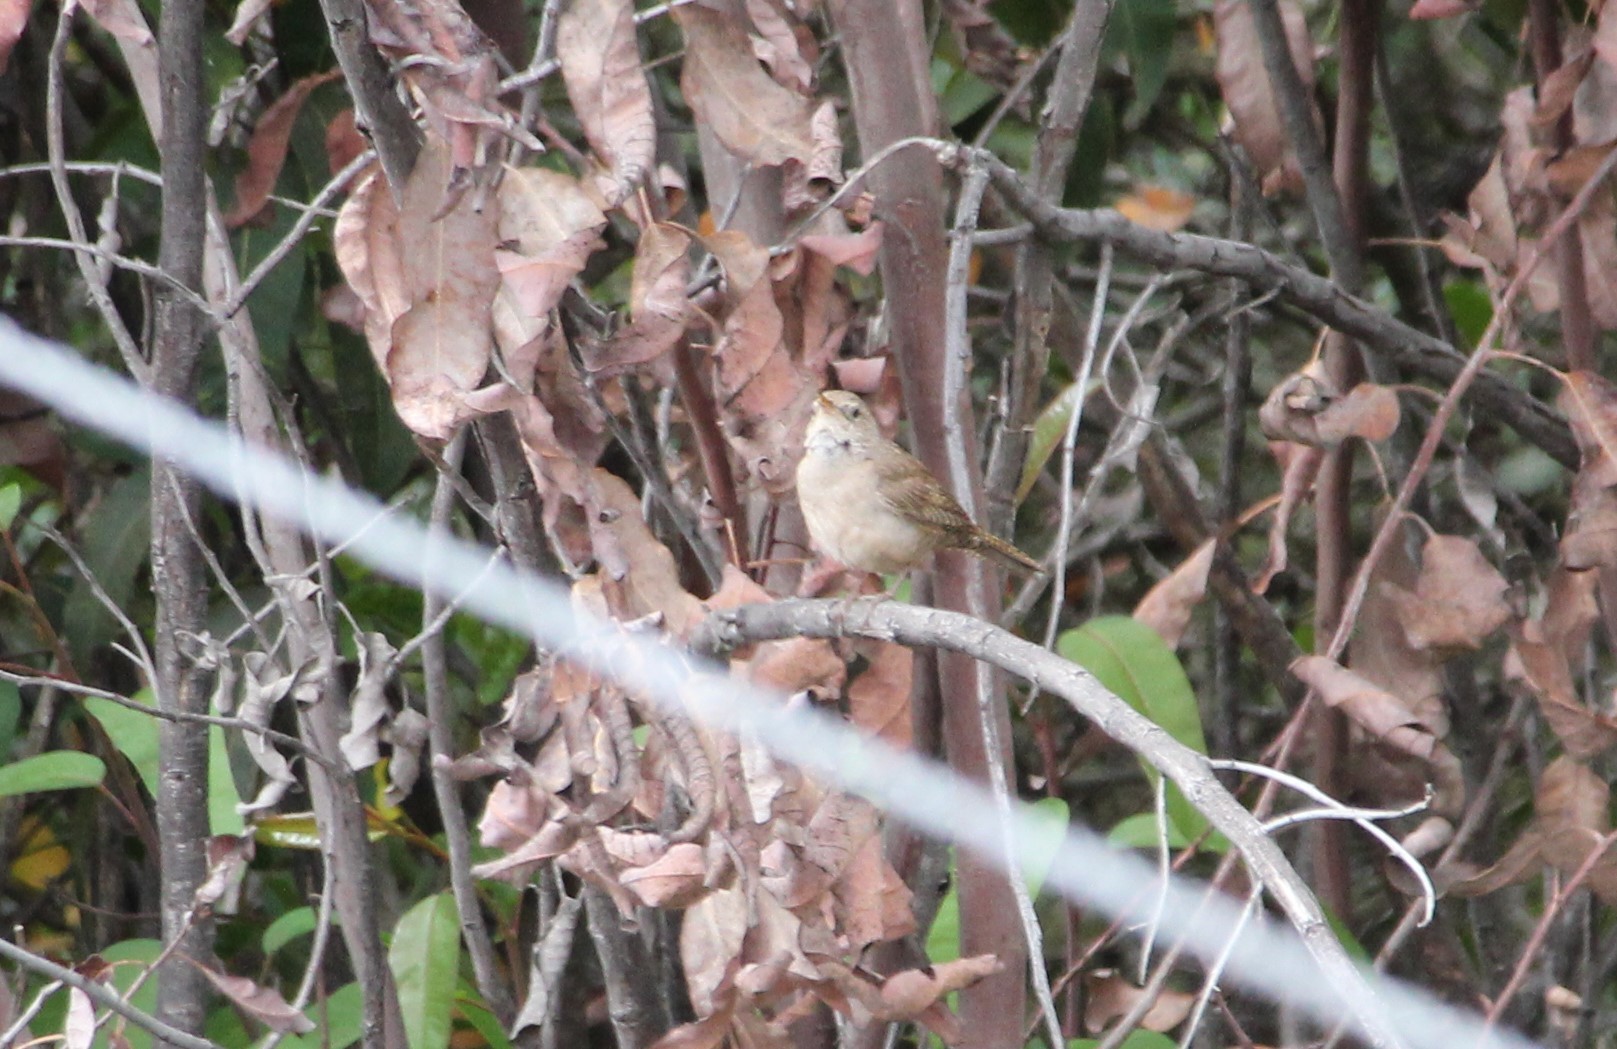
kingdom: Animalia
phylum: Chordata
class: Aves
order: Passeriformes
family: Troglodytidae
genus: Troglodytes
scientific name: Troglodytes aedon
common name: House wren
